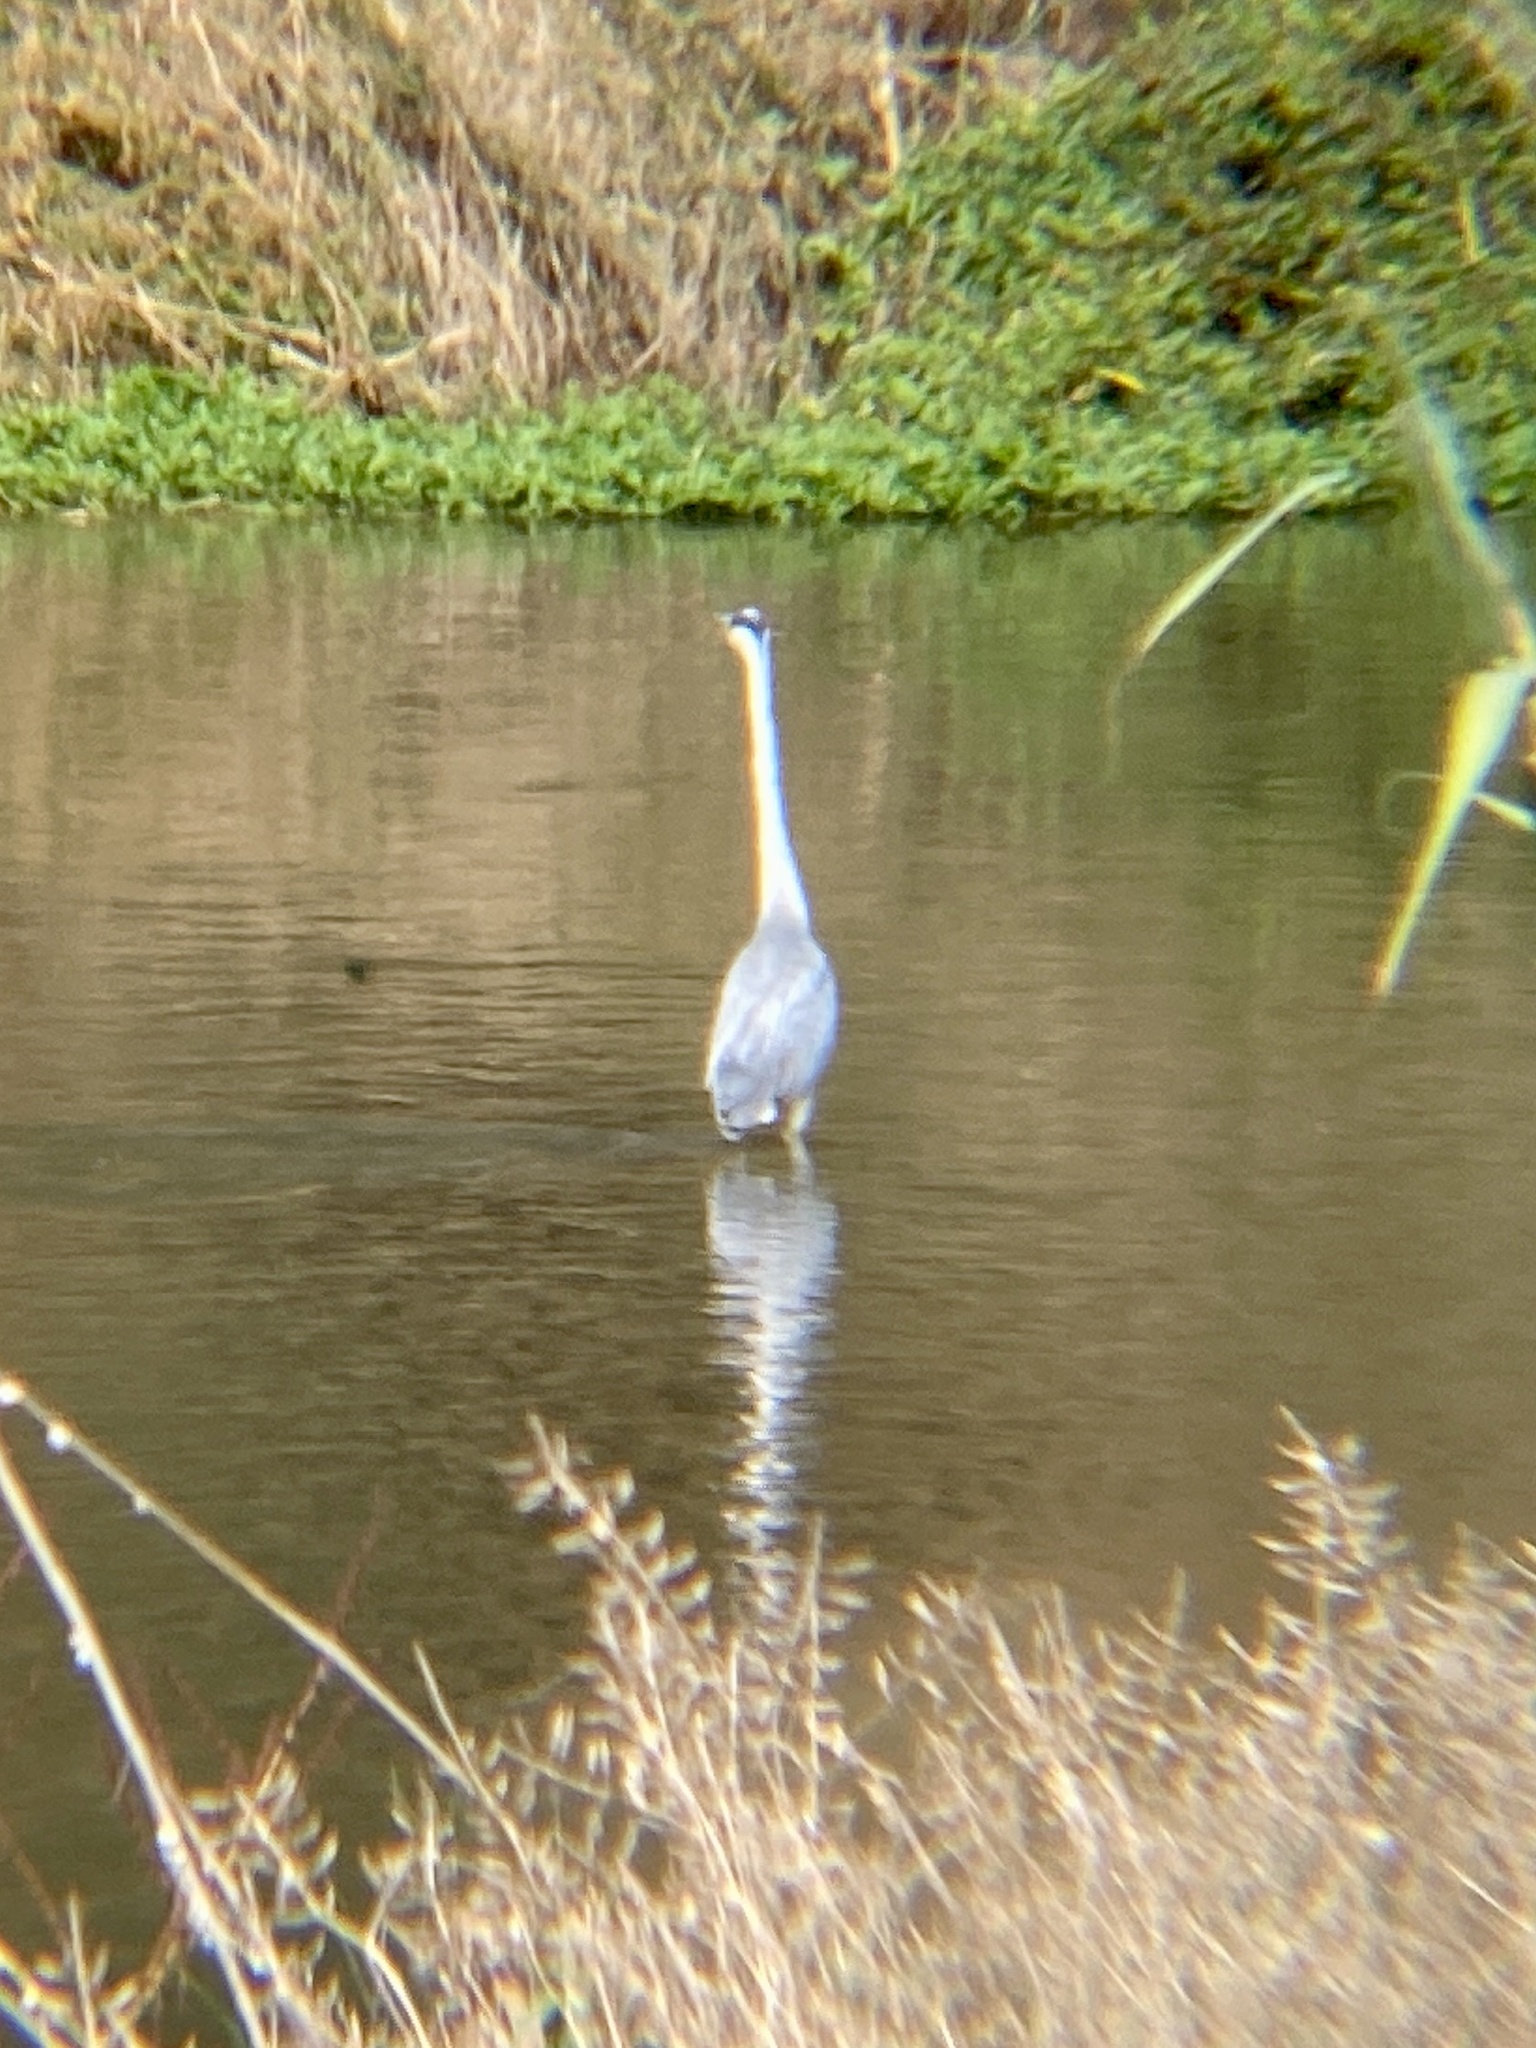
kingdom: Animalia
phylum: Chordata
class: Aves
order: Pelecaniformes
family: Ardeidae
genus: Ardea
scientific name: Ardea cinerea
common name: Grey heron
